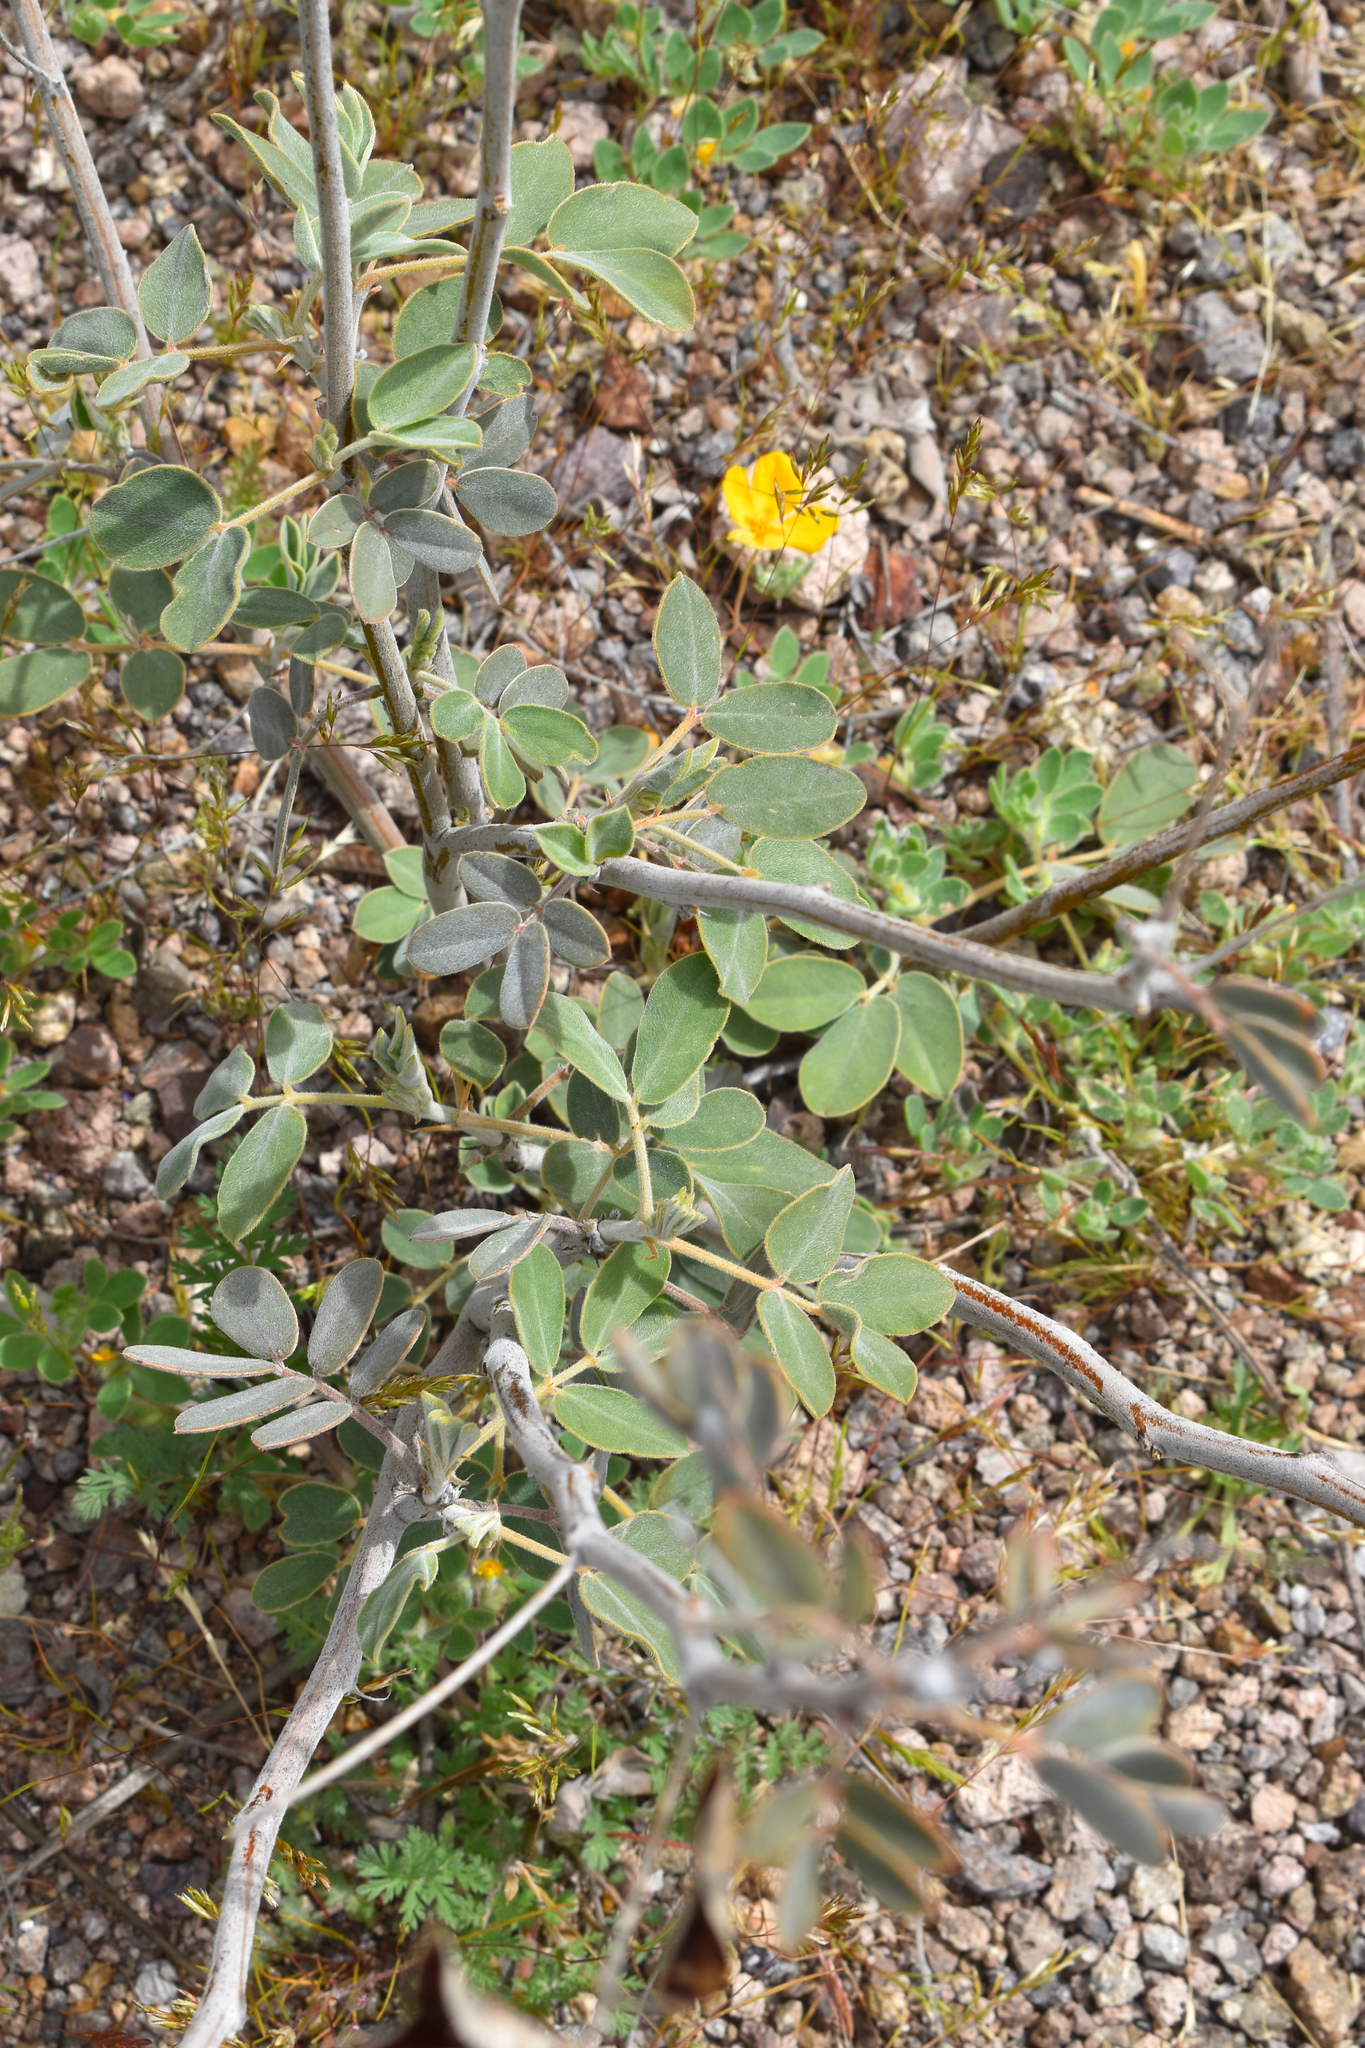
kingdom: Plantae
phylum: Tracheophyta
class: Magnoliopsida
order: Fabales
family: Fabaceae
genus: Senna
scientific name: Senna covesii
